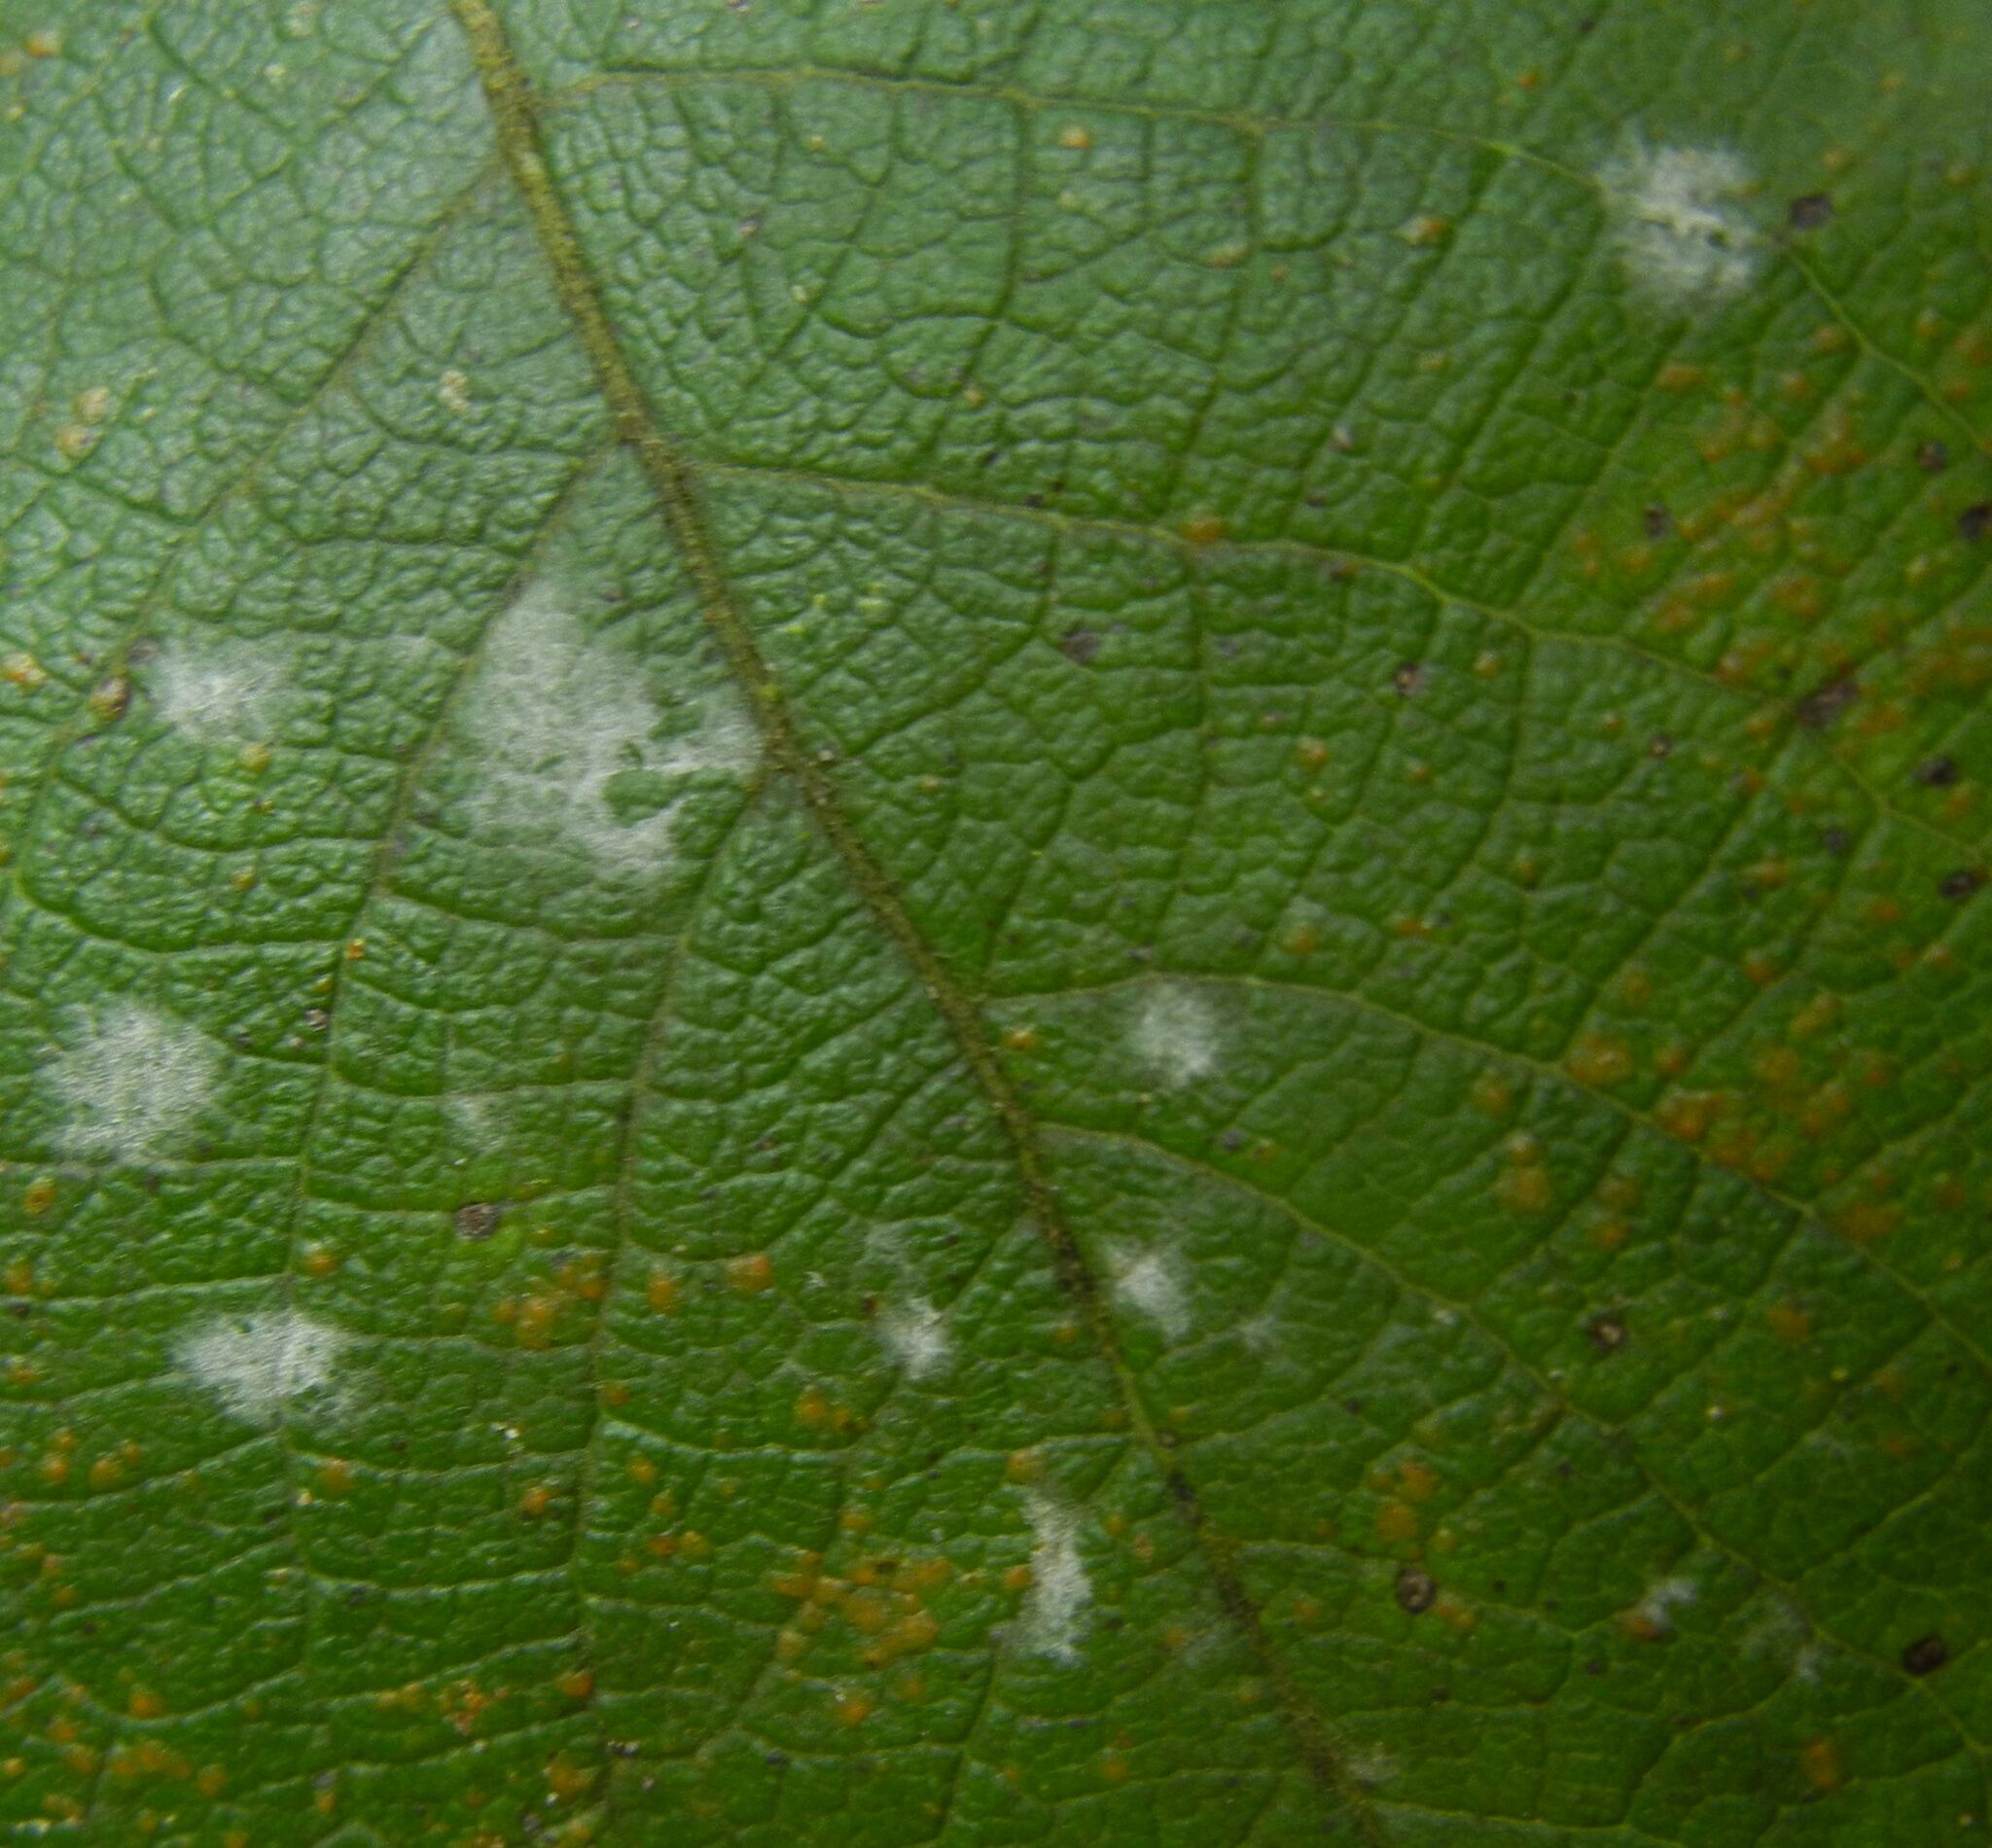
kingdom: Fungi
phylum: Ascomycota
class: Leotiomycetes
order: Helotiales
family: Erysiphaceae
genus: Erysiphe
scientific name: Erysiphe capreae
